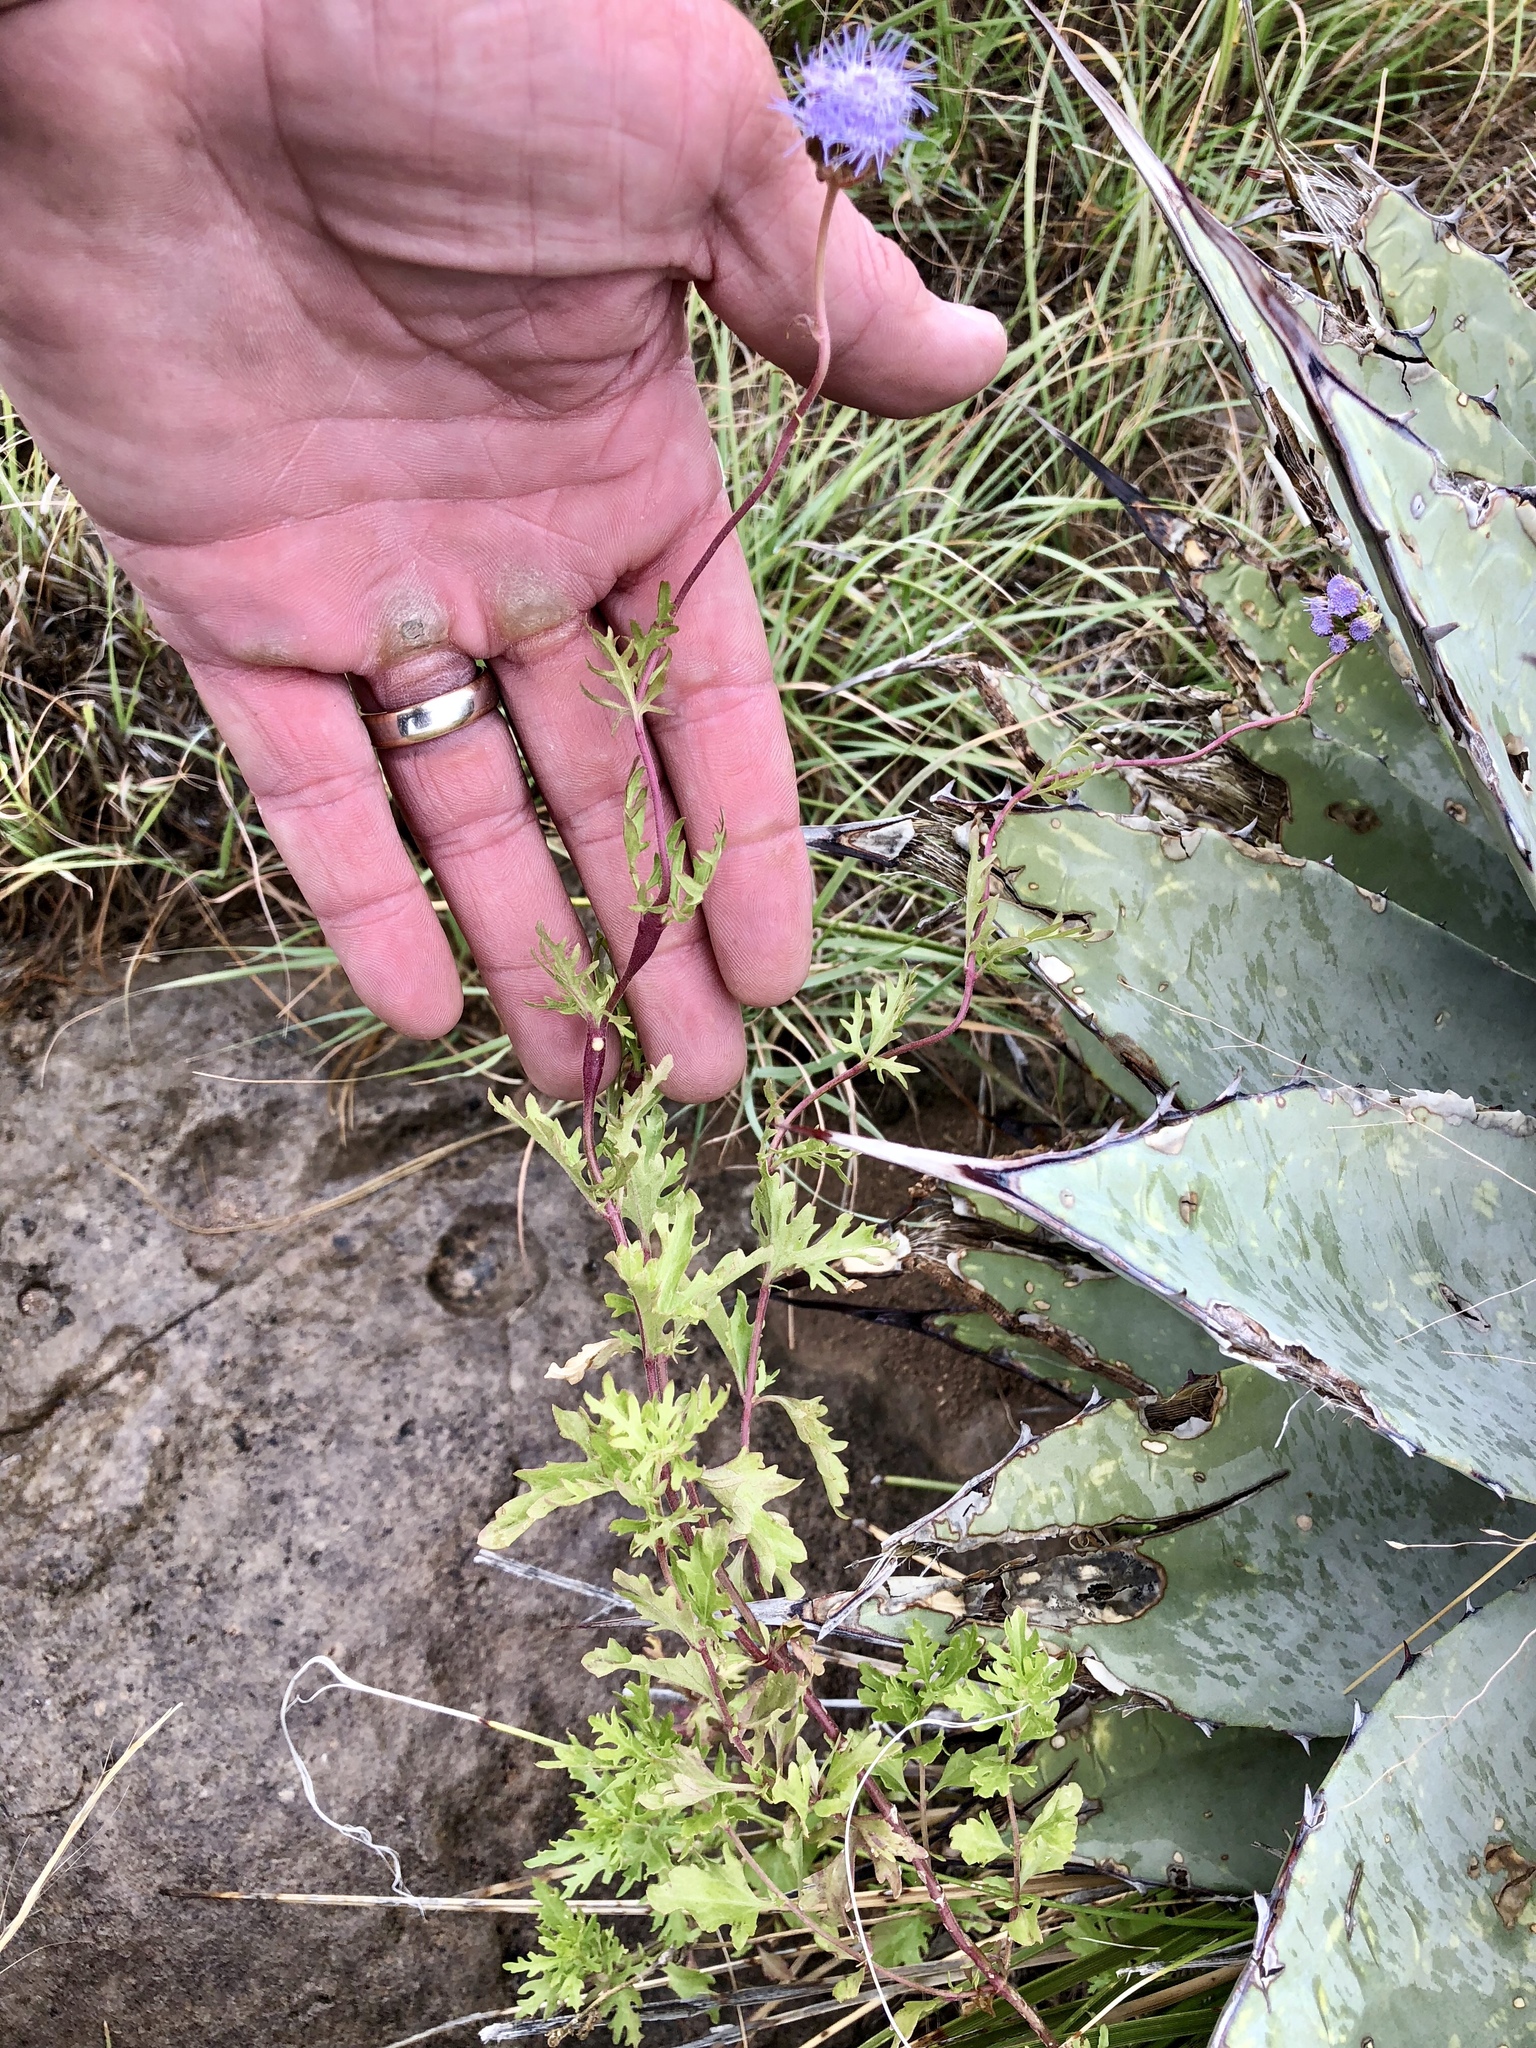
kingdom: Plantae
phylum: Tracheophyta
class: Magnoliopsida
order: Asterales
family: Asteraceae
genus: Conoclinium
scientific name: Conoclinium dissectum
